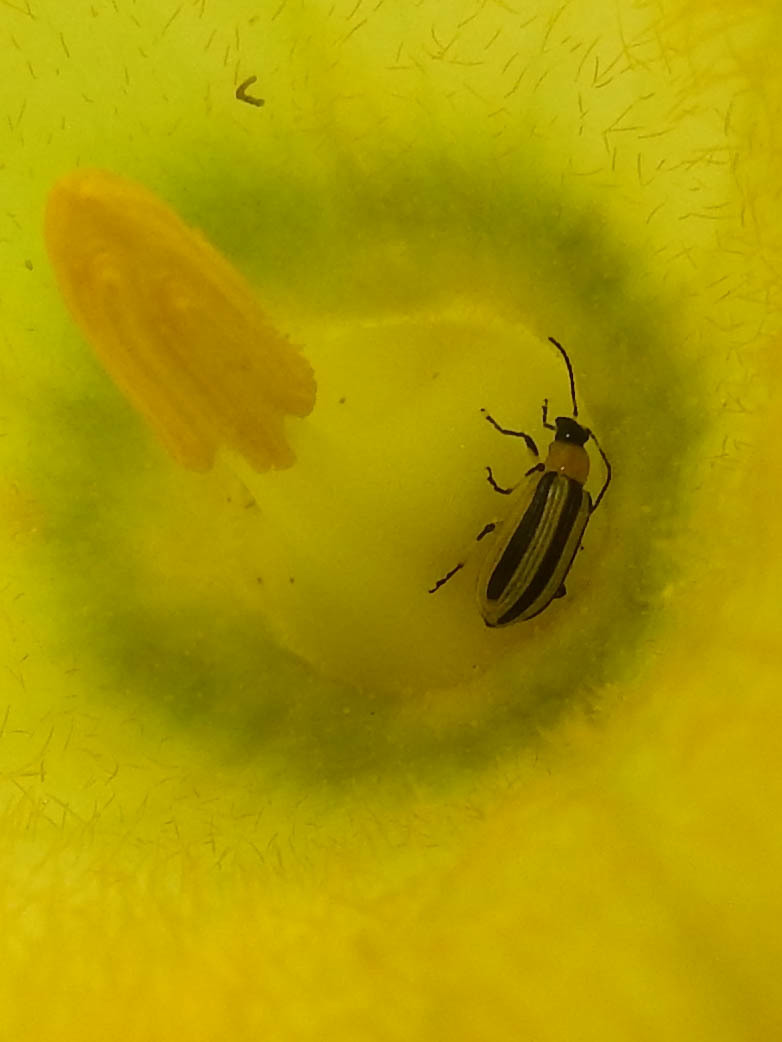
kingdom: Animalia
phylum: Arthropoda
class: Insecta
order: Coleoptera
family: Chrysomelidae
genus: Acalymma
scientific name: Acalymma vittatum
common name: Striped cucumber beetle
